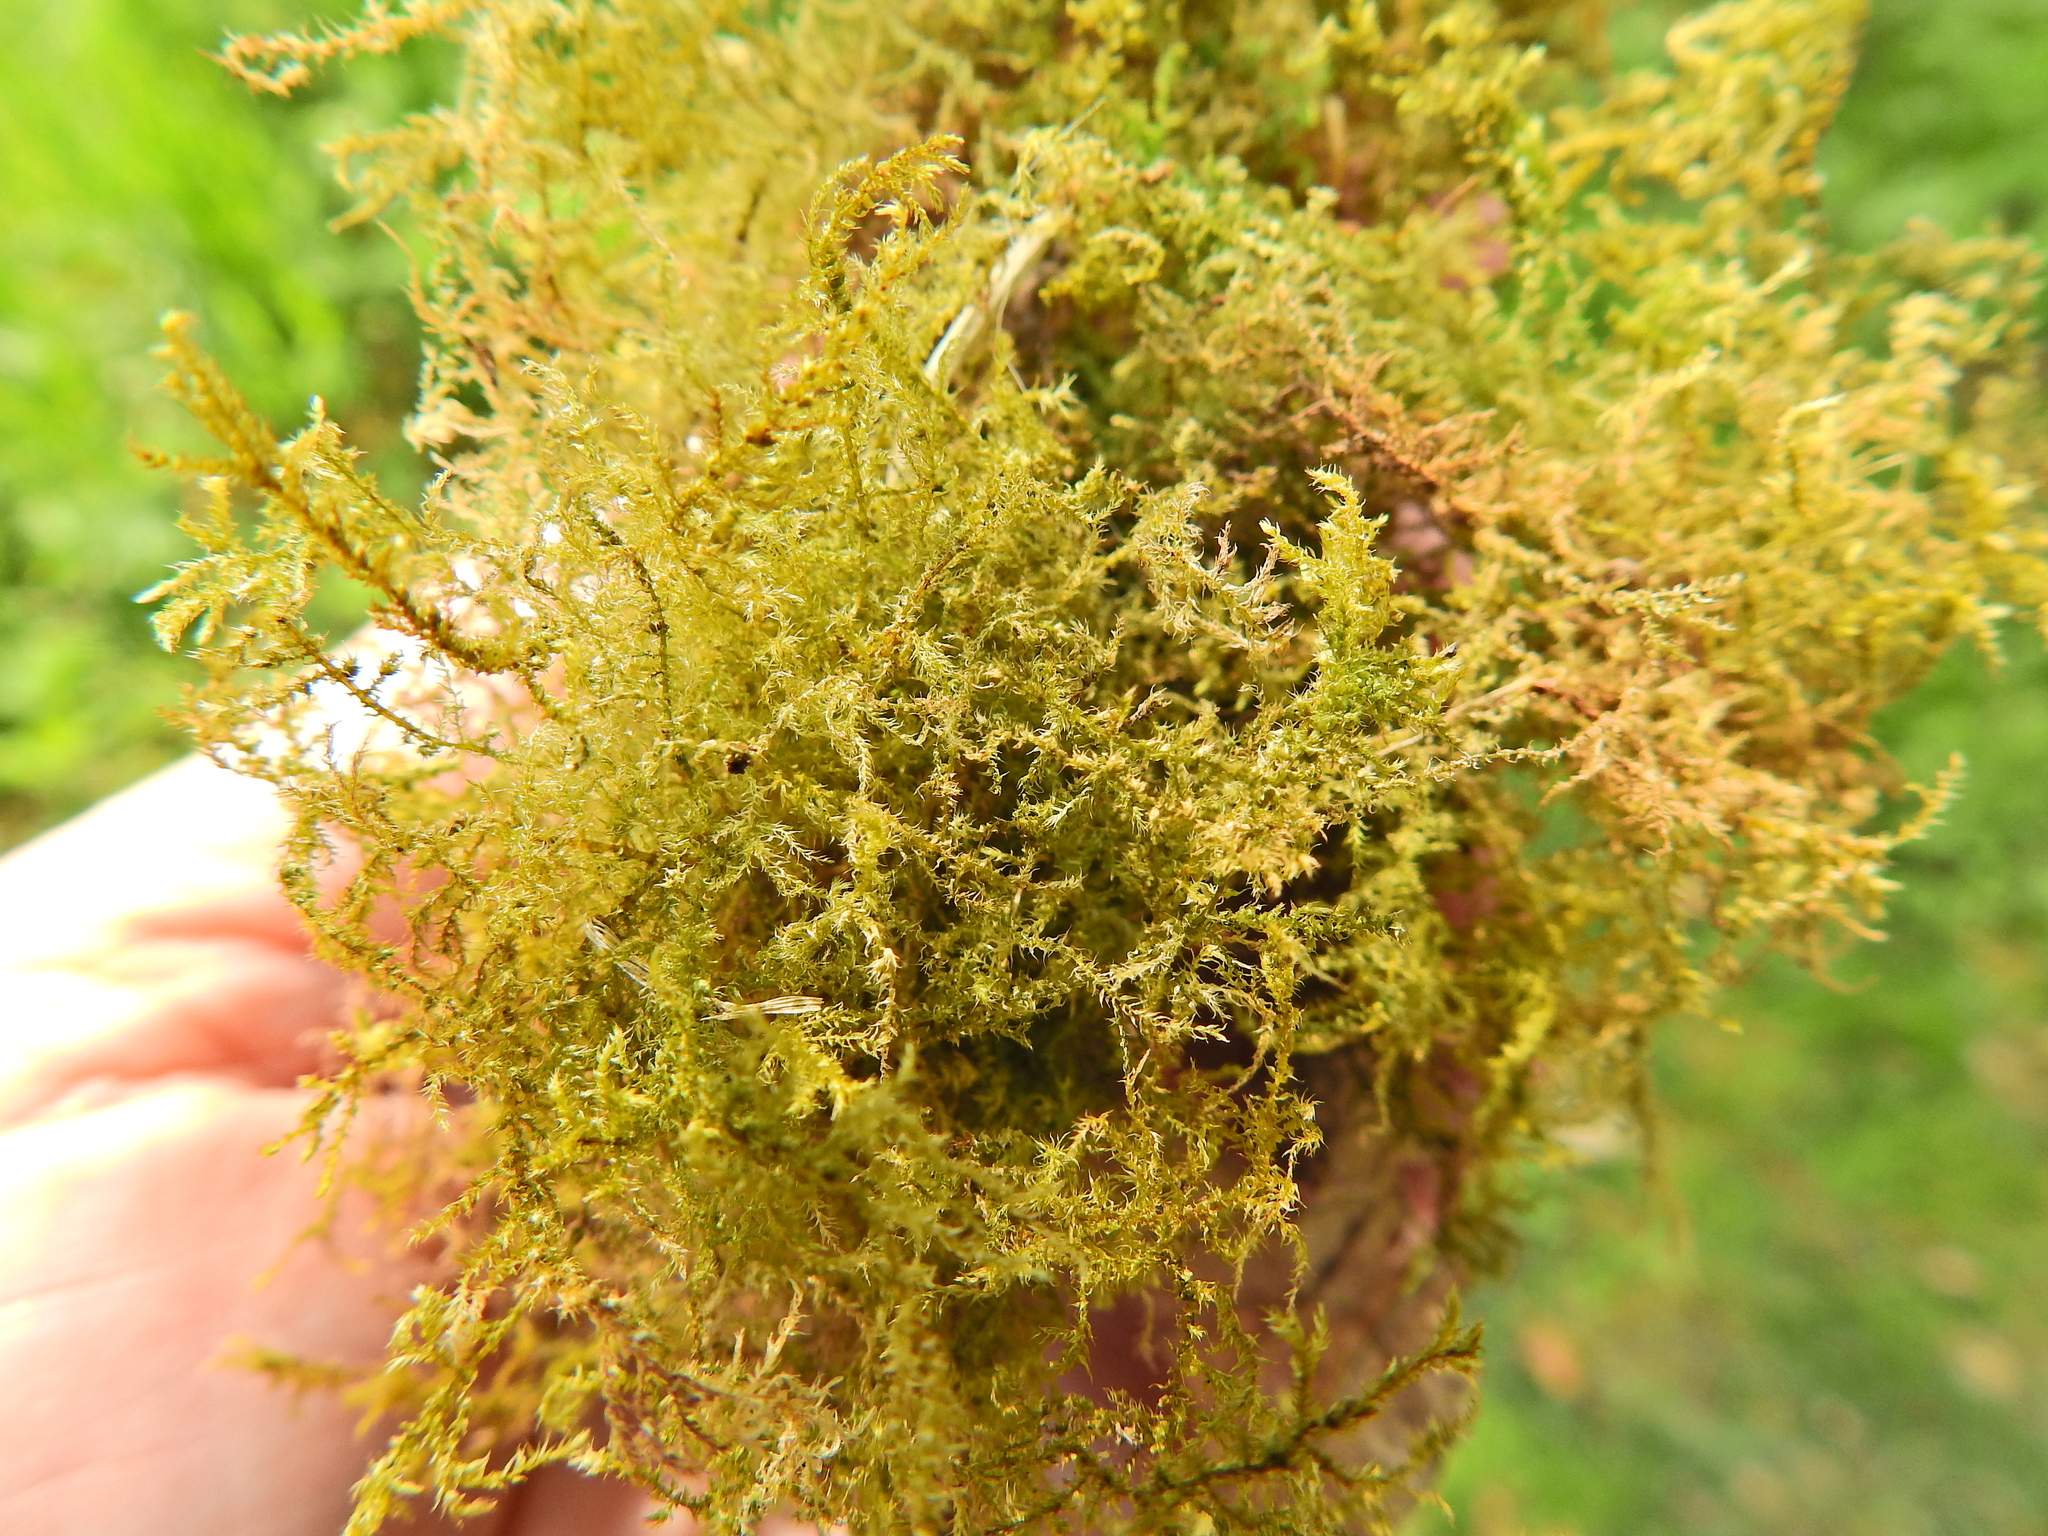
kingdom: Plantae
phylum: Bryophyta
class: Bryopsida
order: Hypnales
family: Brachytheciaceae
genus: Oxyrrhynchium
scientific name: Oxyrrhynchium hians
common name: Spreading beaked moss
